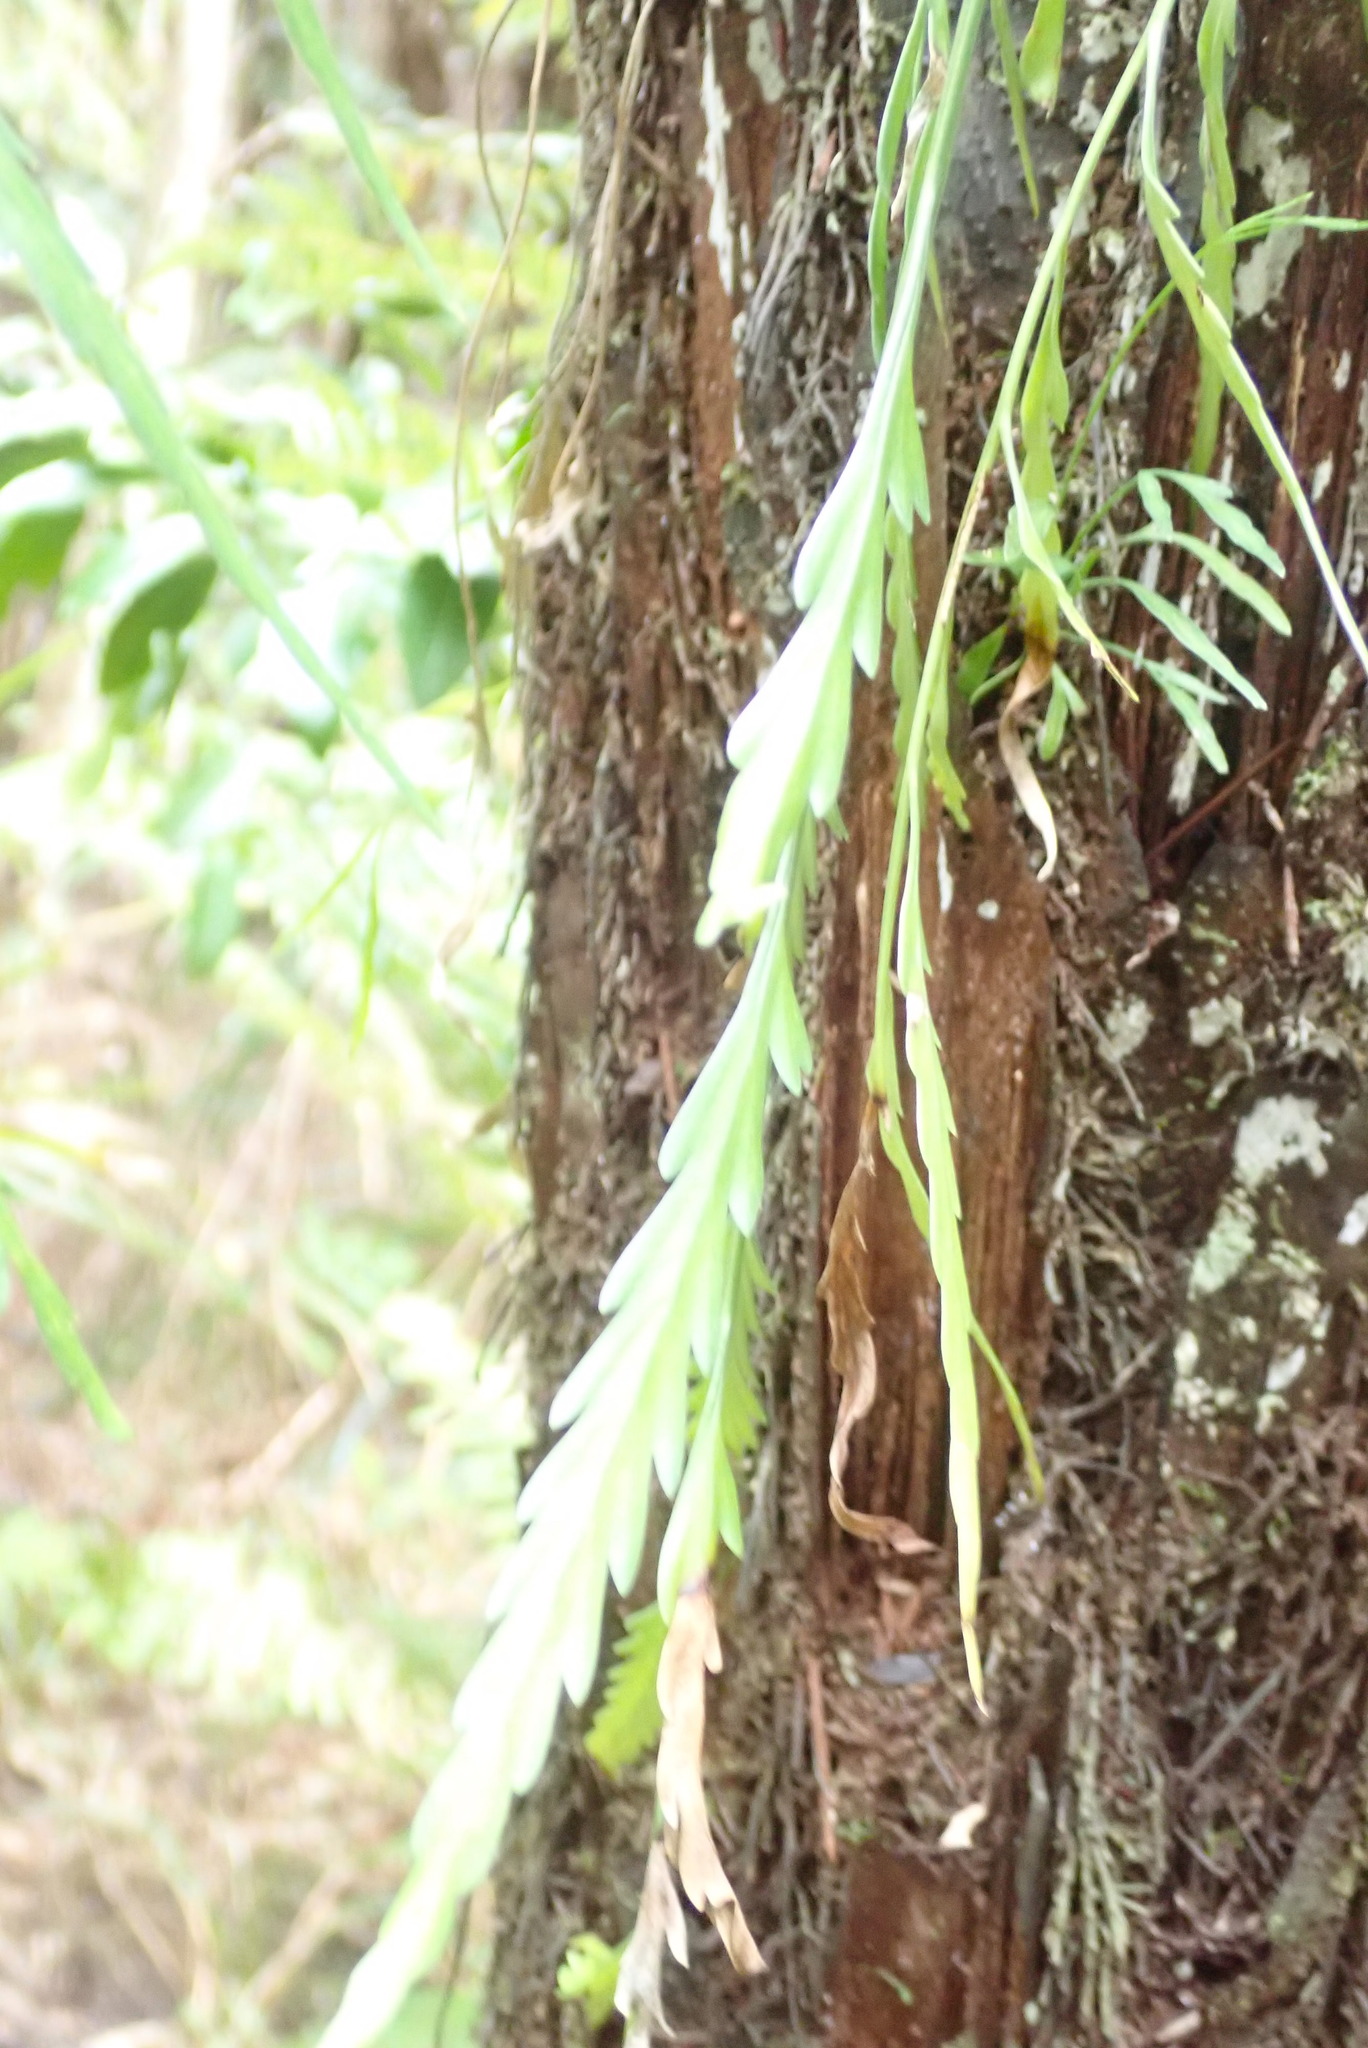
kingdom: Plantae
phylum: Tracheophyta
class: Polypodiopsida
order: Polypodiales
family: Aspleniaceae
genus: Asplenium
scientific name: Asplenium flaccidum
